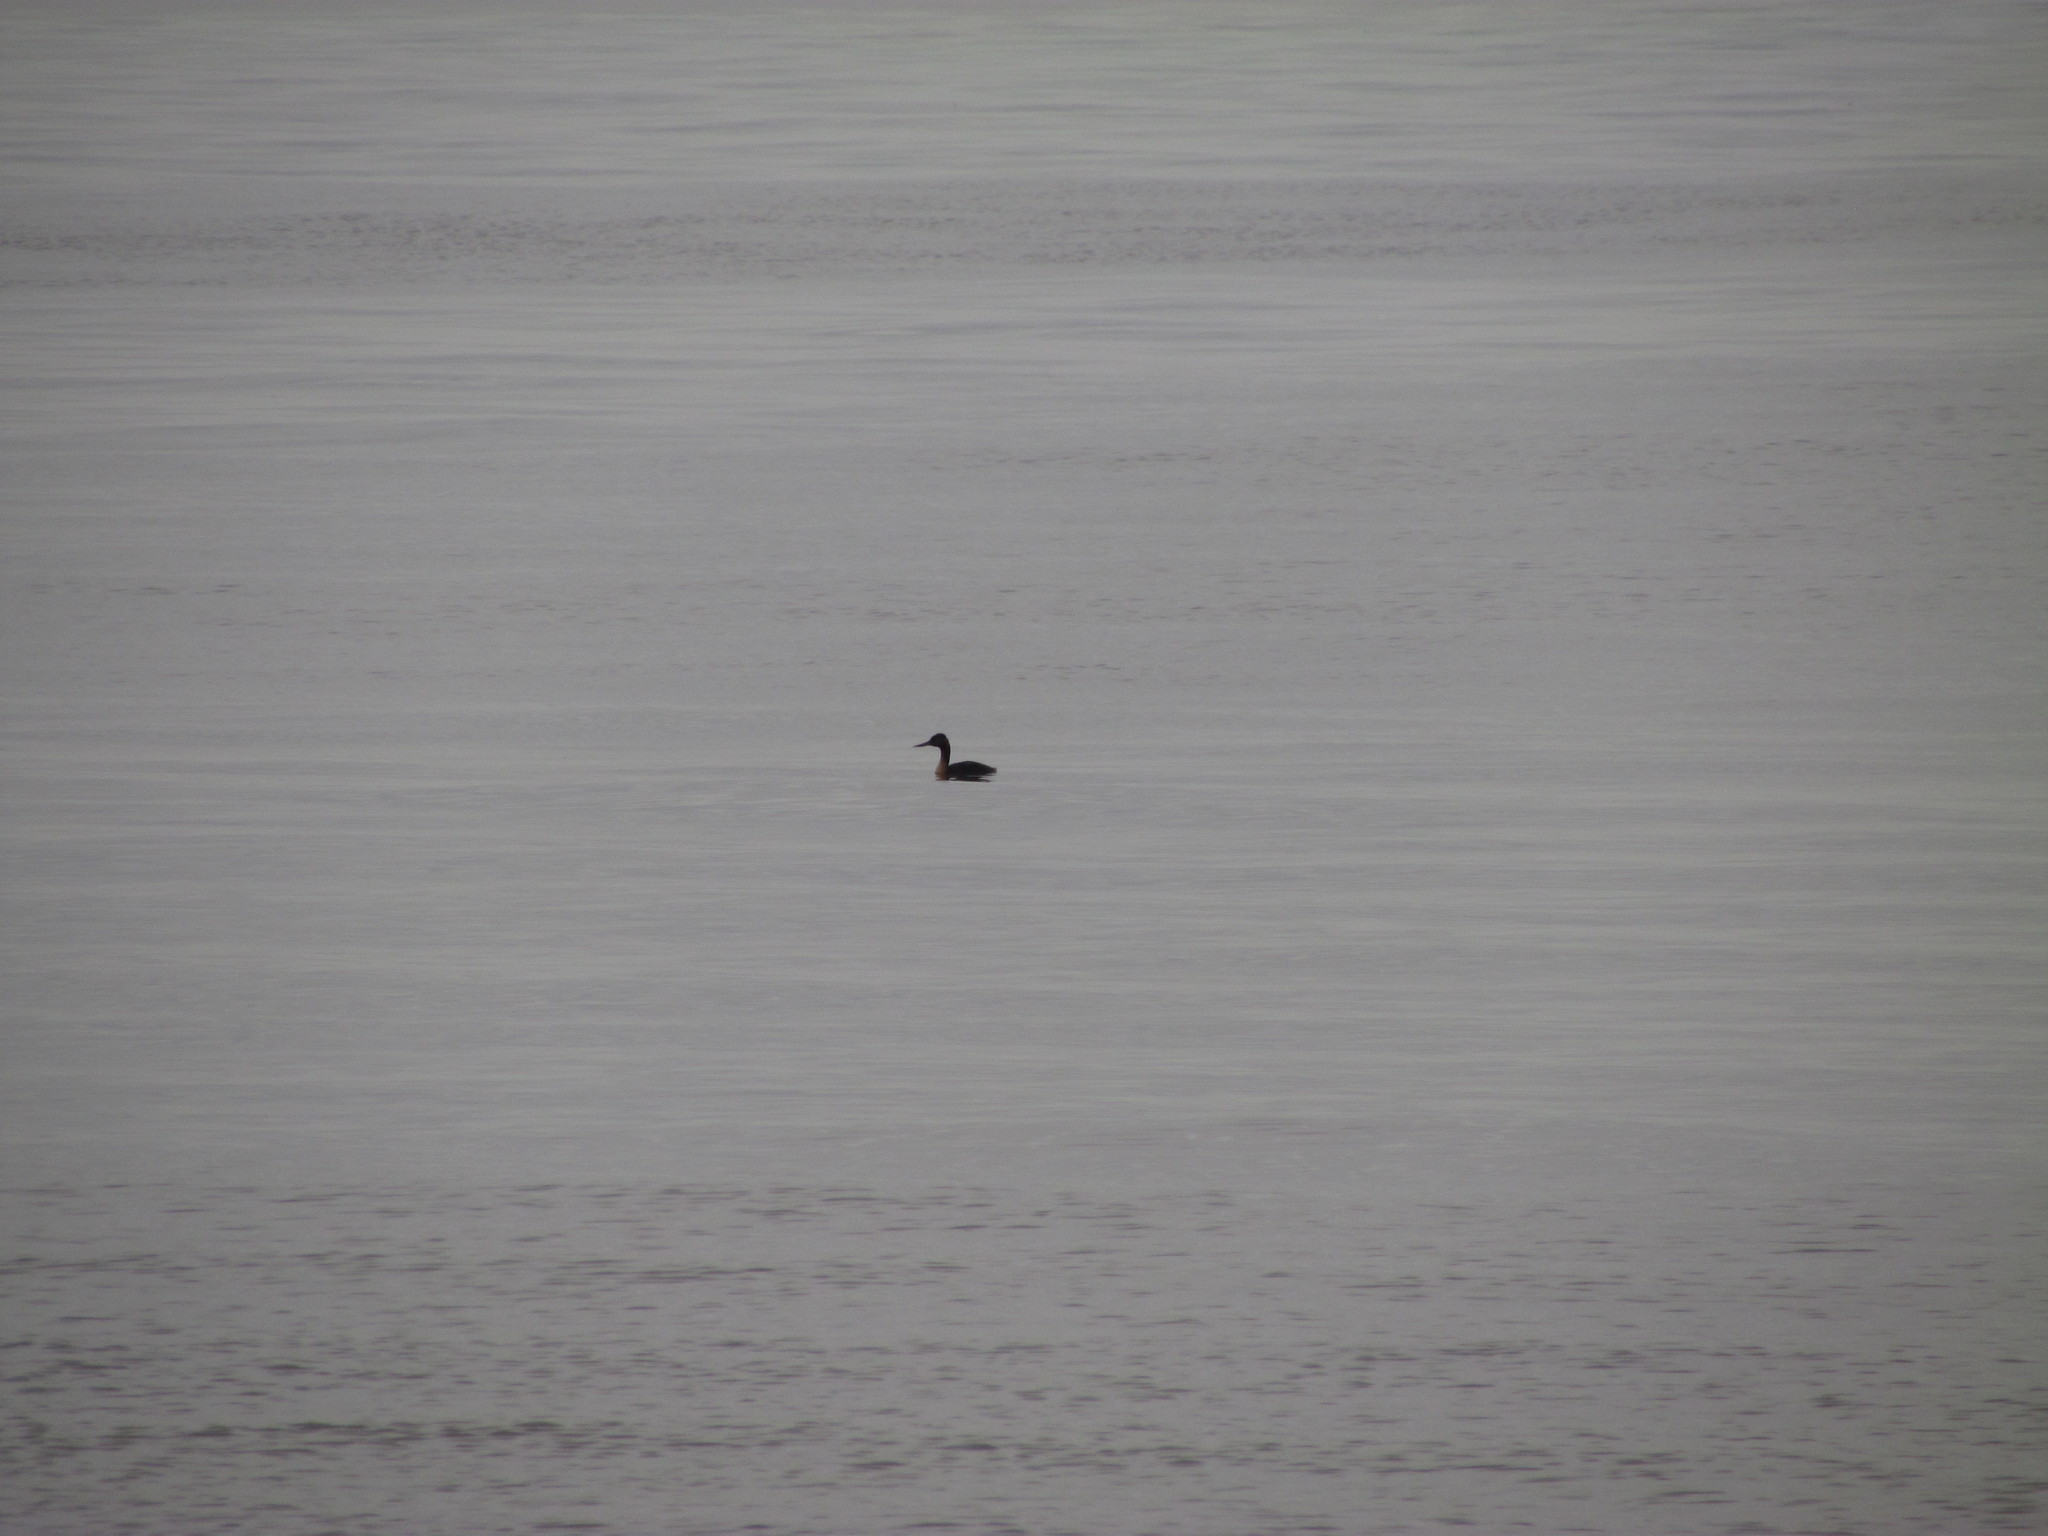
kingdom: Animalia
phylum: Chordata
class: Aves
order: Podicipediformes
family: Podicipedidae
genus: Podiceps
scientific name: Podiceps major
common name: Great grebe
